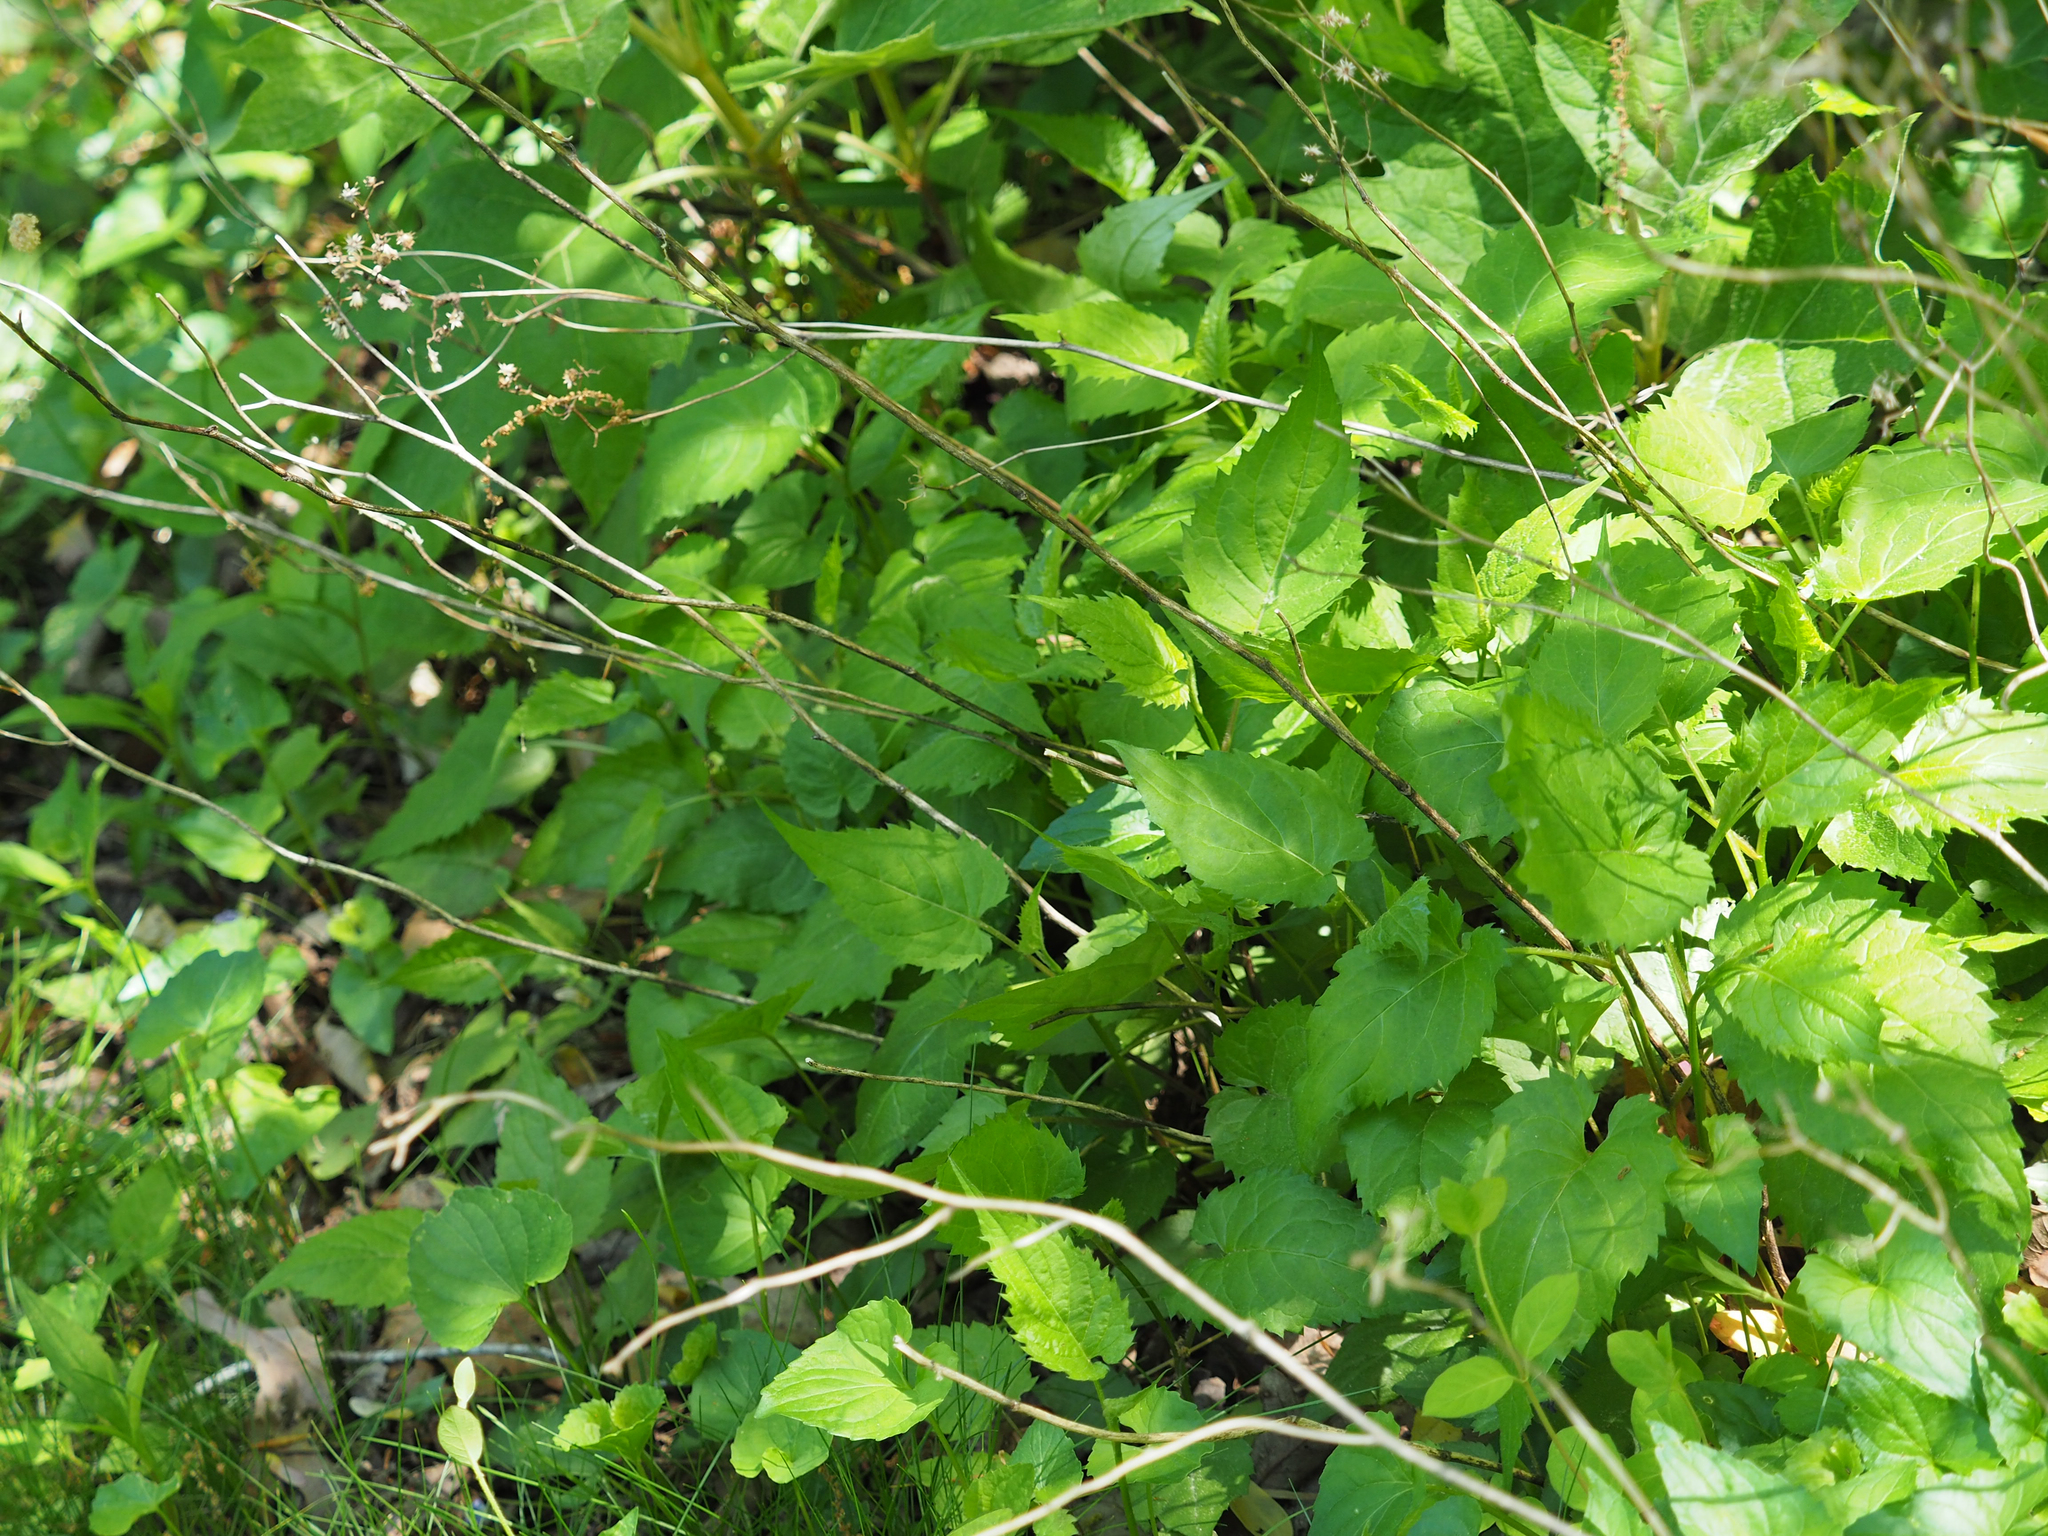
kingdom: Plantae
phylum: Tracheophyta
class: Magnoliopsida
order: Asterales
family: Asteraceae
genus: Eurybia
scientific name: Eurybia divaricata
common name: White wood aster
